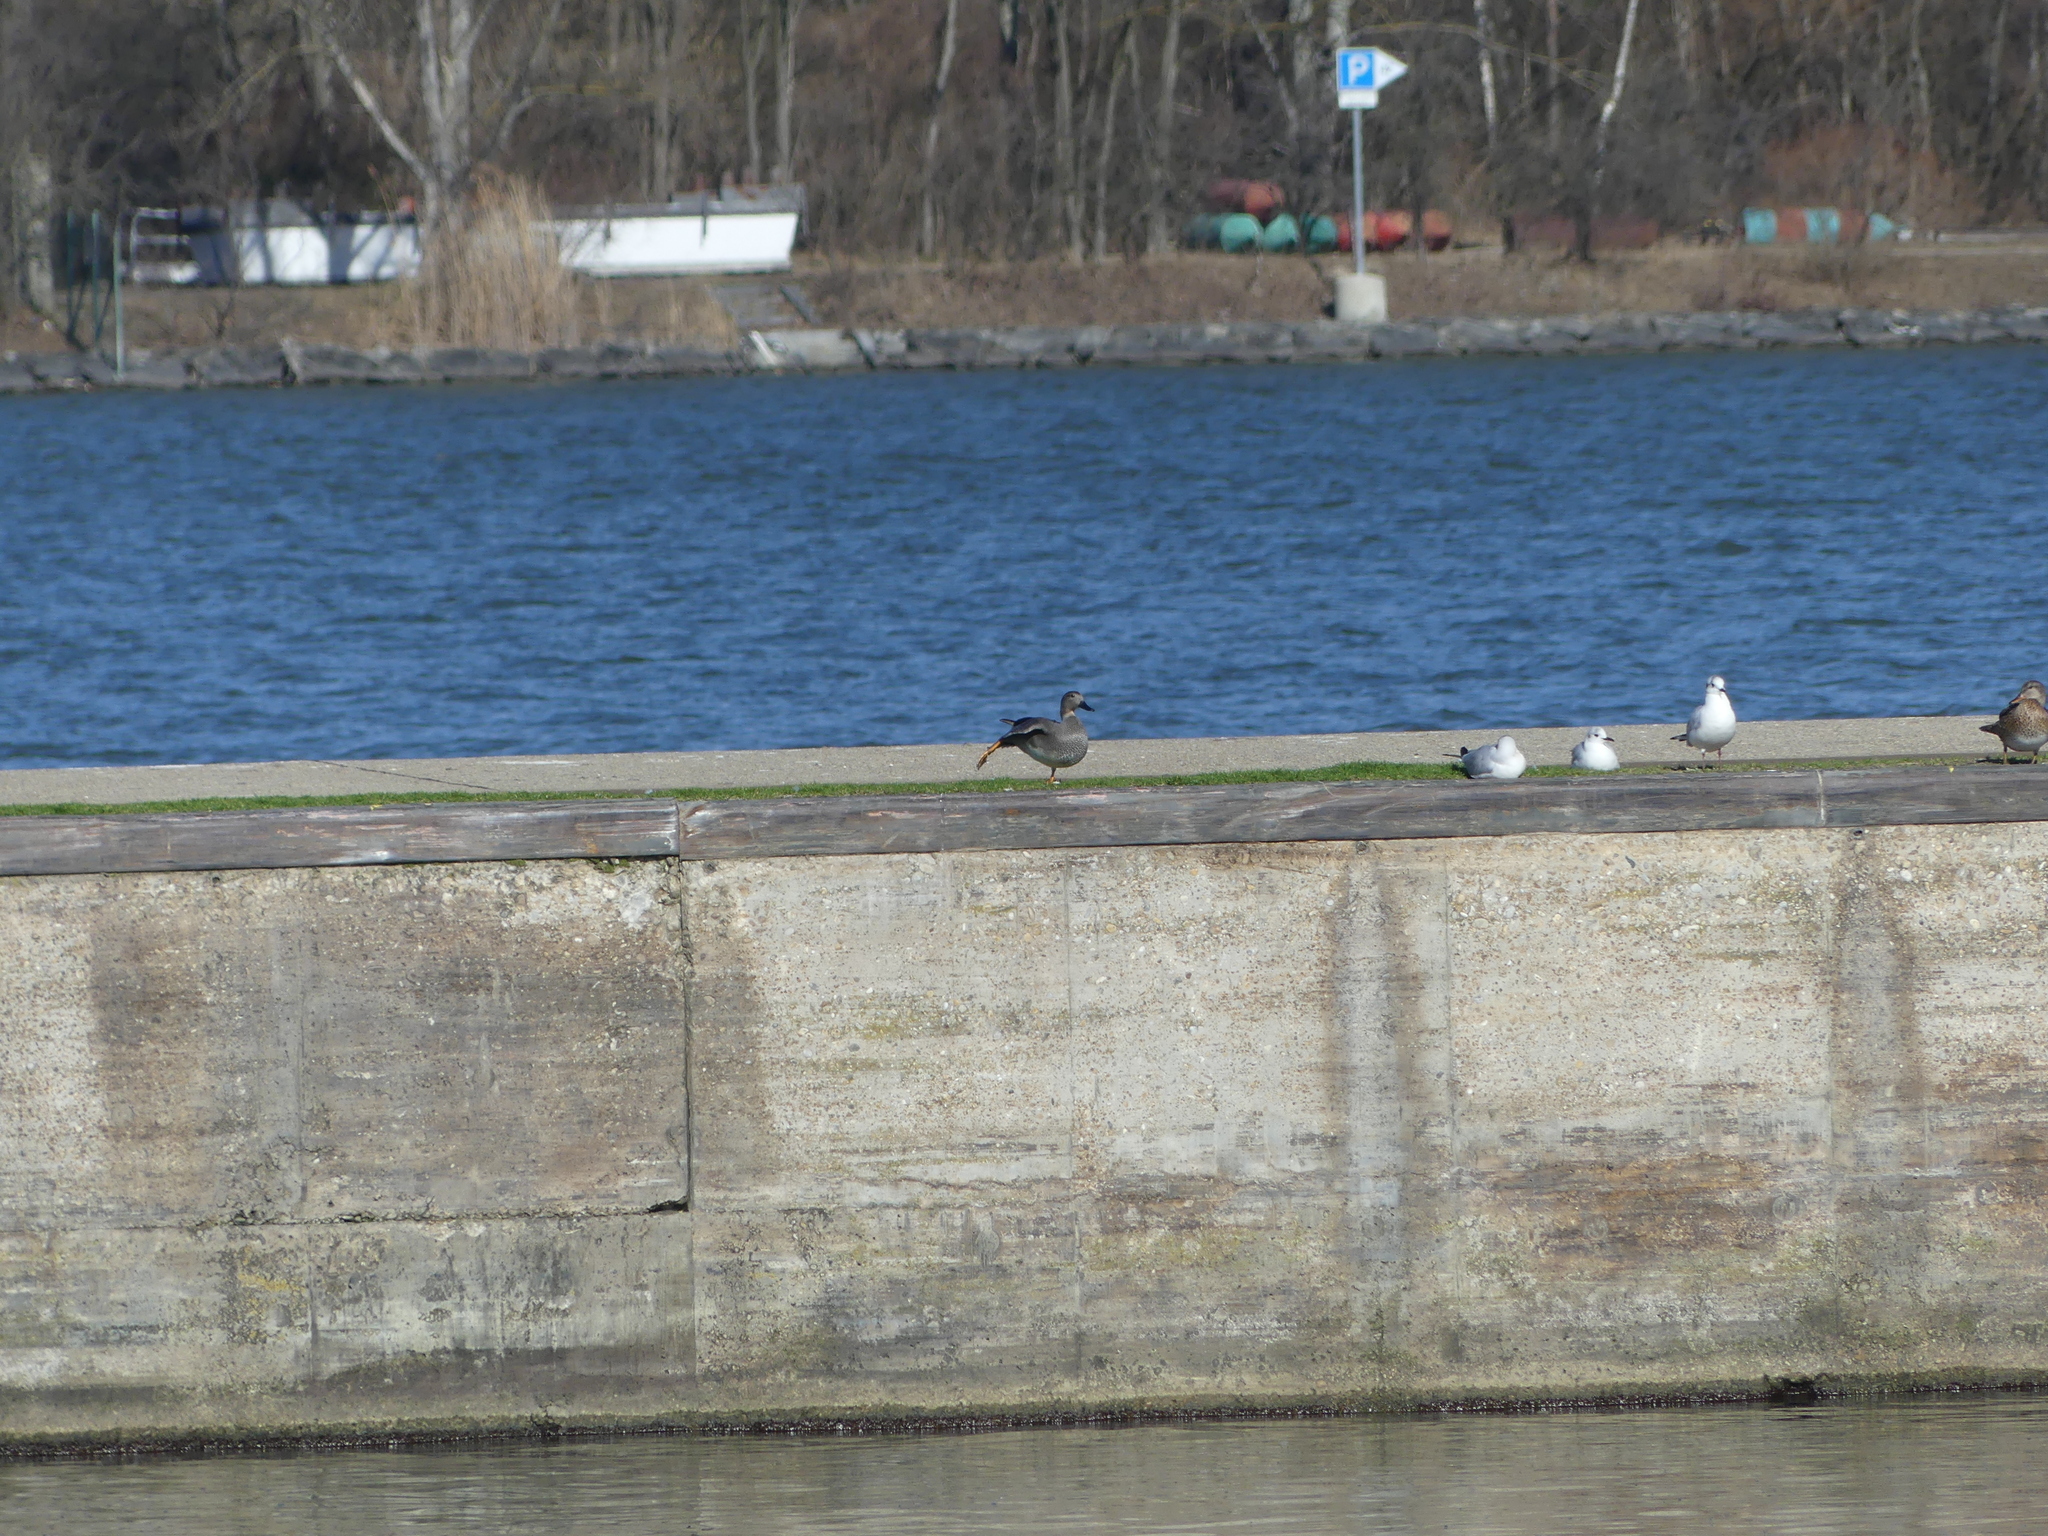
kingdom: Animalia
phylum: Chordata
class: Aves
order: Charadriiformes
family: Laridae
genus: Chroicocephalus
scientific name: Chroicocephalus ridibundus
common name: Black-headed gull
